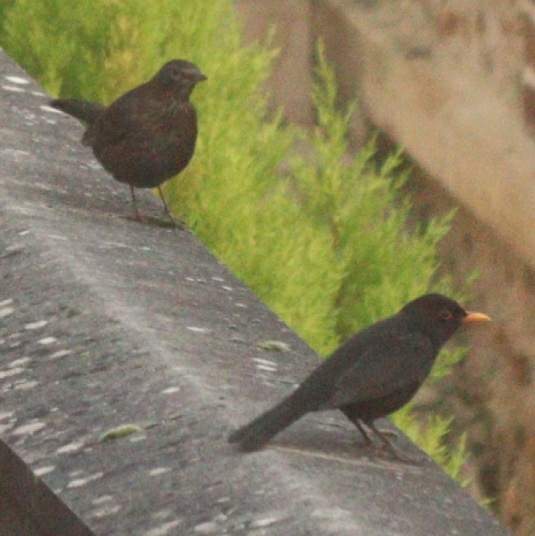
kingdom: Animalia
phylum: Chordata
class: Aves
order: Passeriformes
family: Turdidae
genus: Turdus
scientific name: Turdus merula
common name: Common blackbird
